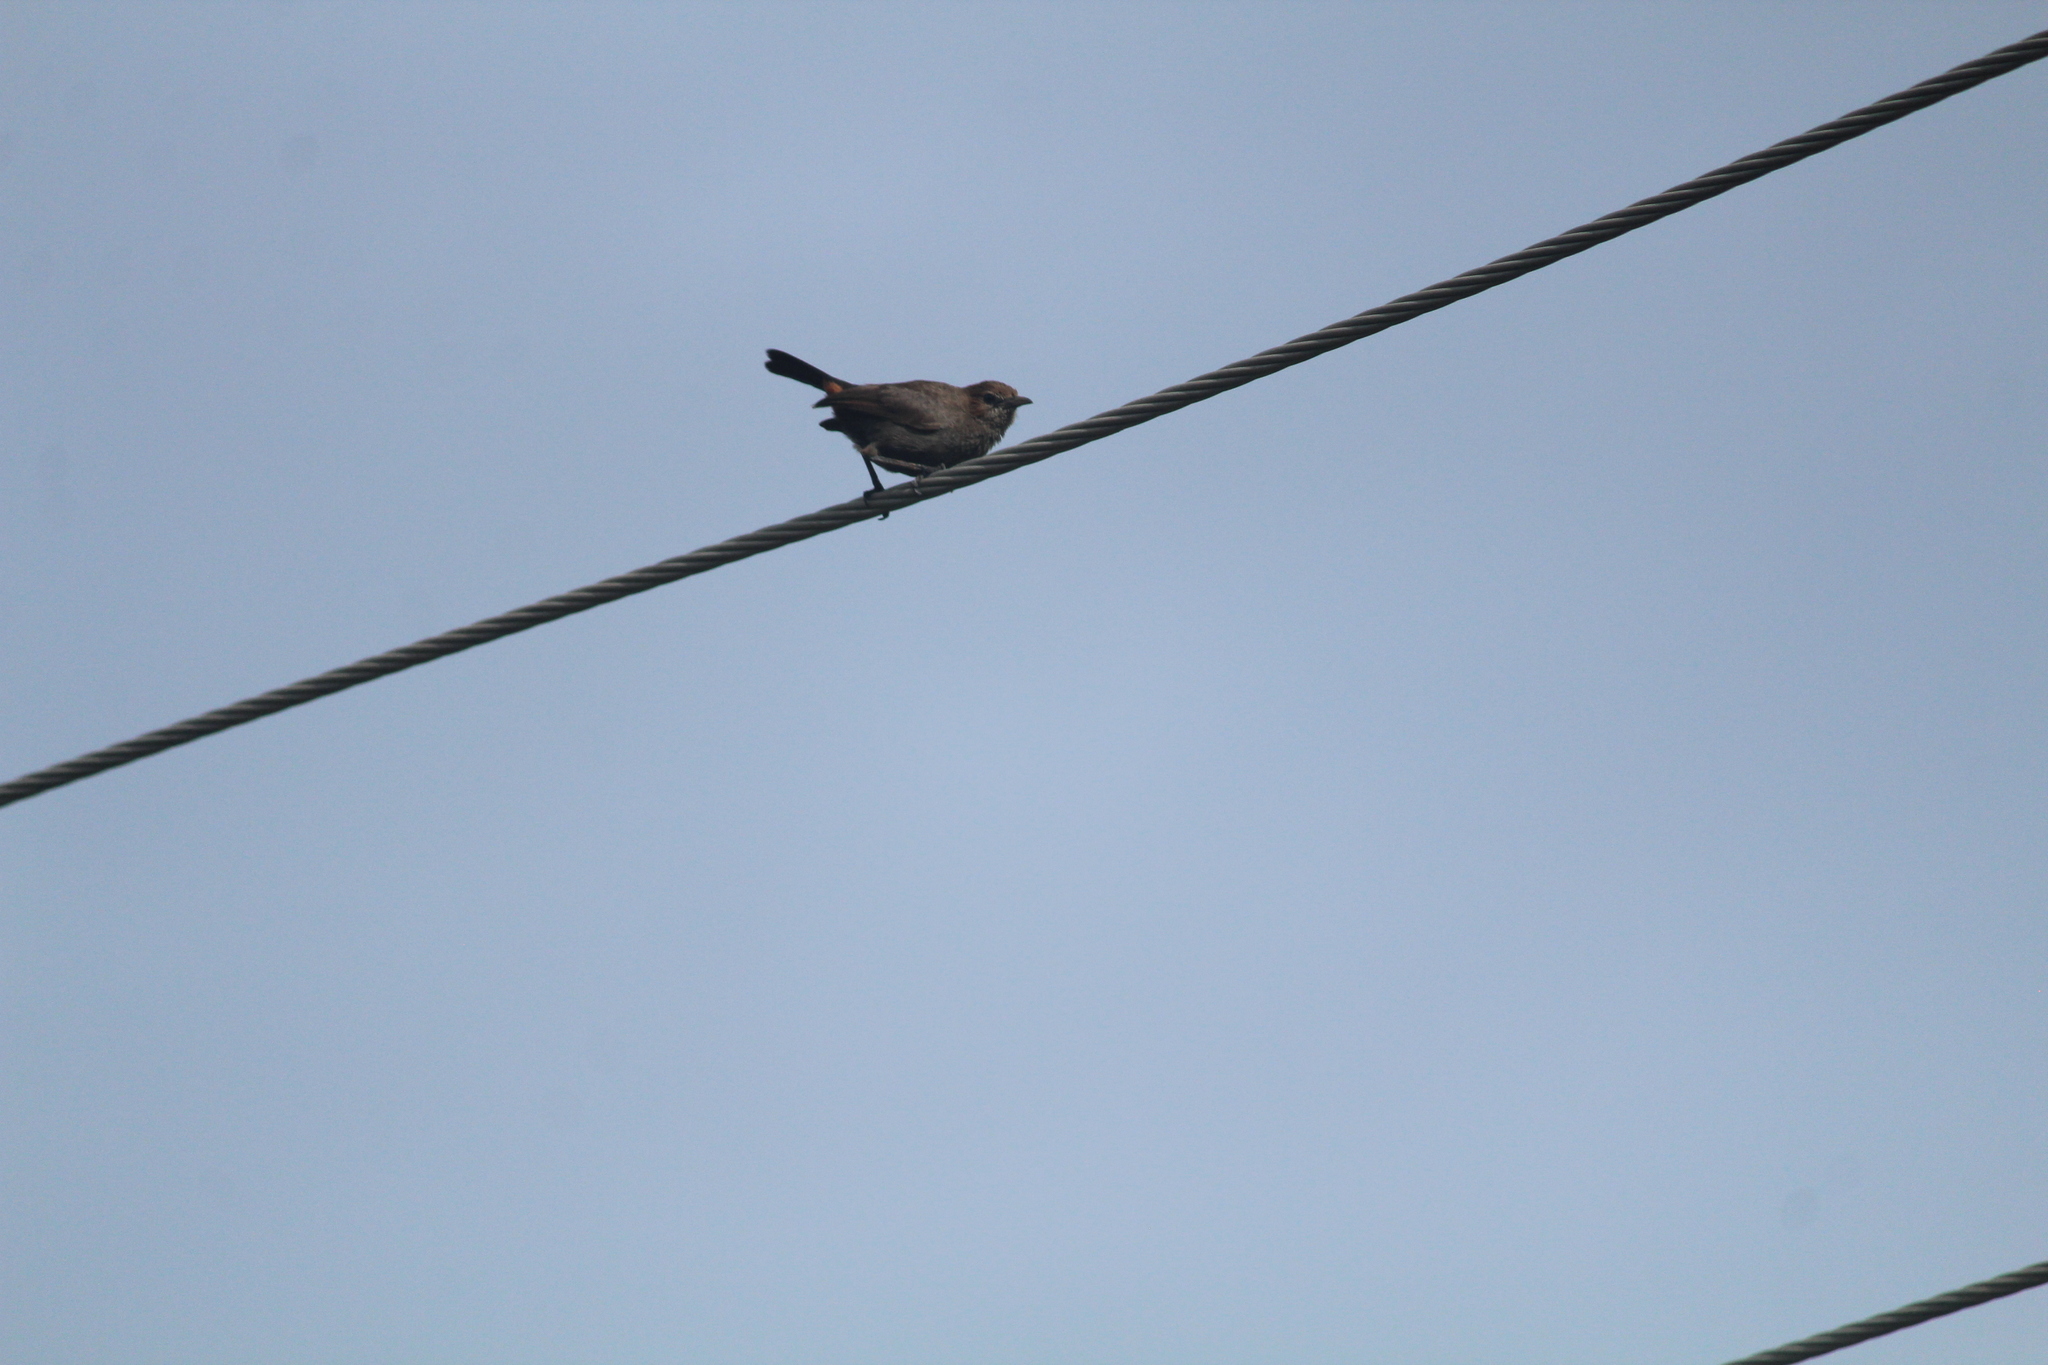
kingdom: Animalia
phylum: Chordata
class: Aves
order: Passeriformes
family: Muscicapidae
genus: Saxicoloides
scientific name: Saxicoloides fulicatus
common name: Indian robin
